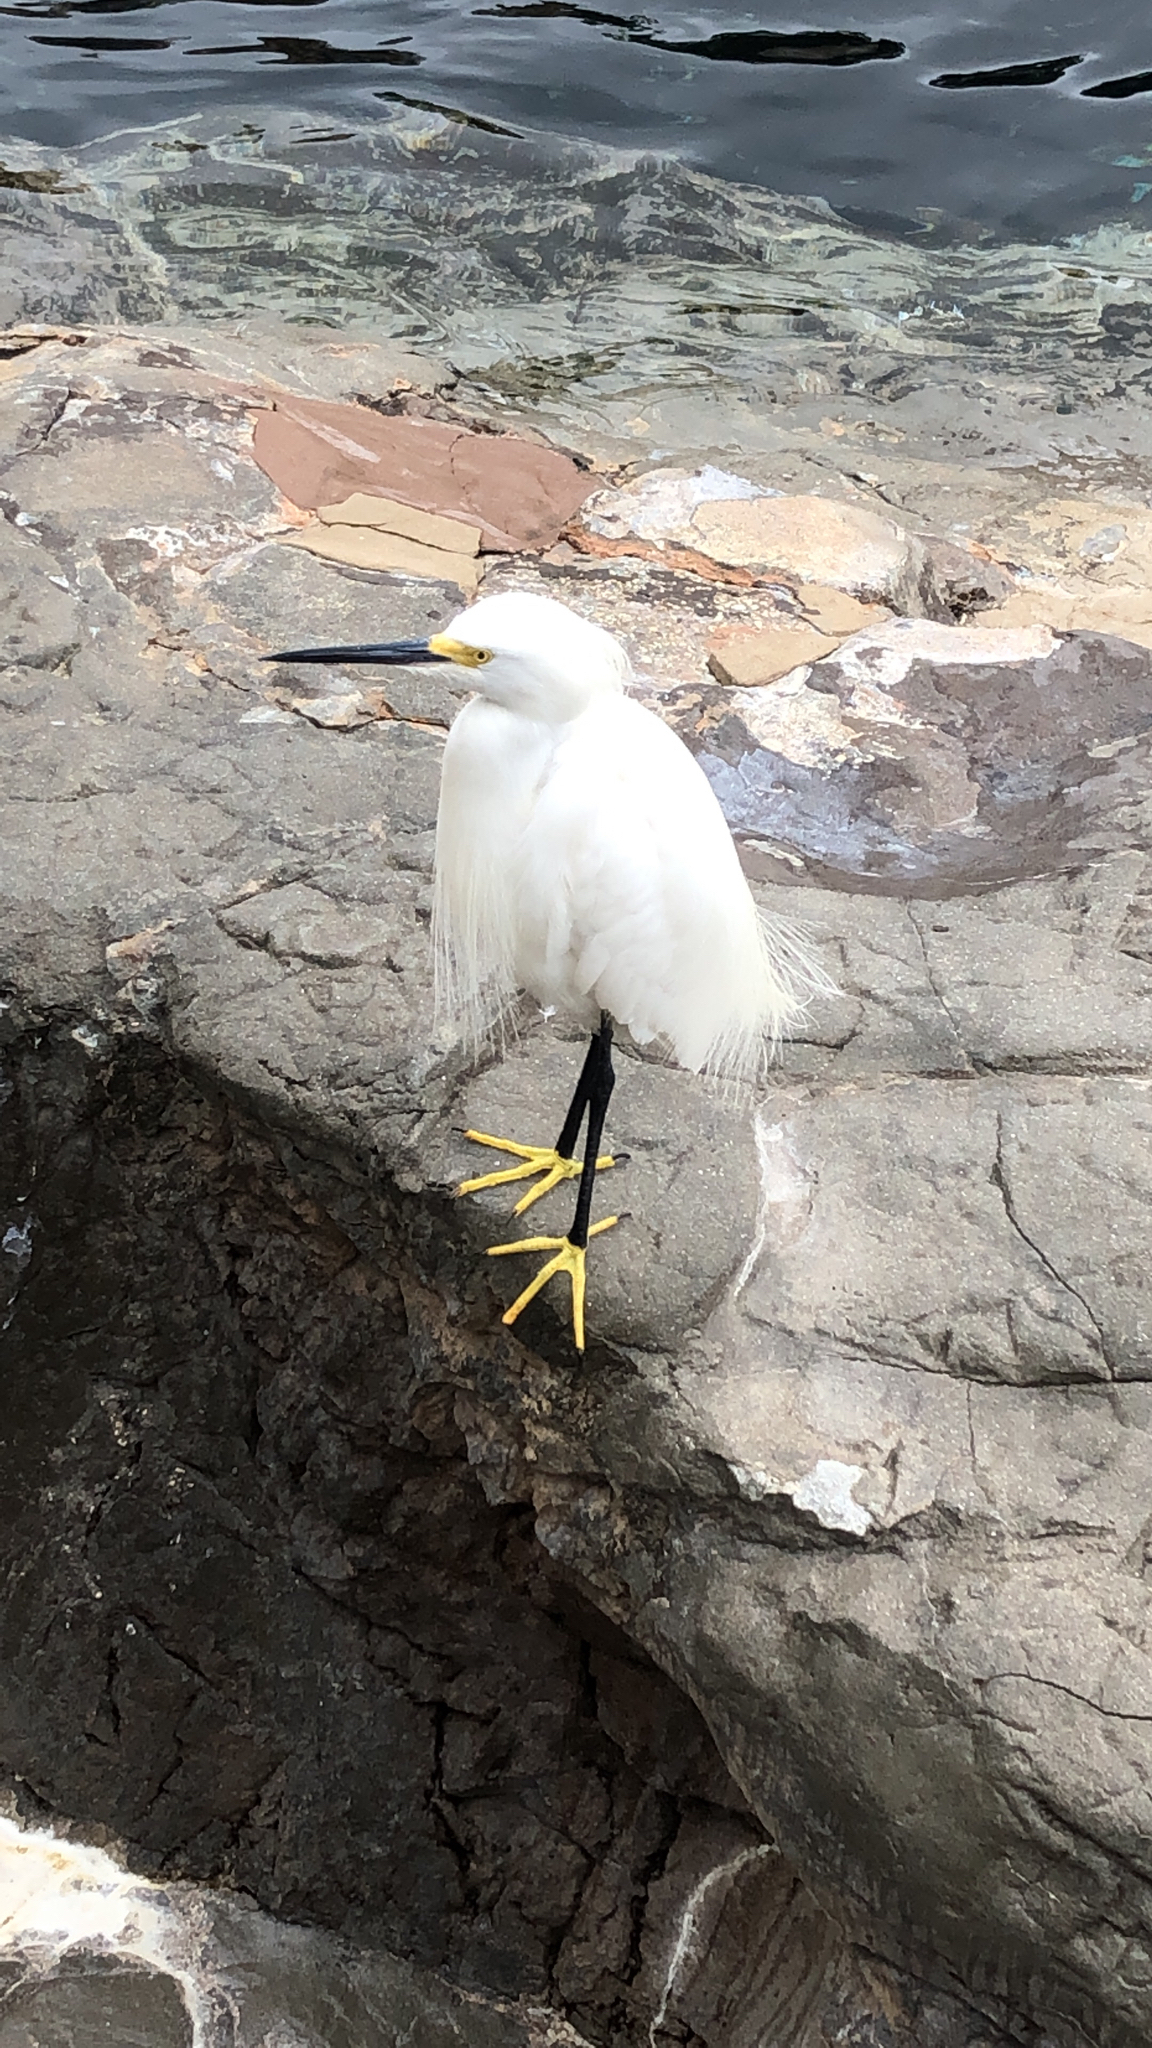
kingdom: Animalia
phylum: Chordata
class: Aves
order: Pelecaniformes
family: Ardeidae
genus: Egretta
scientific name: Egretta thula
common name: Snowy egret
